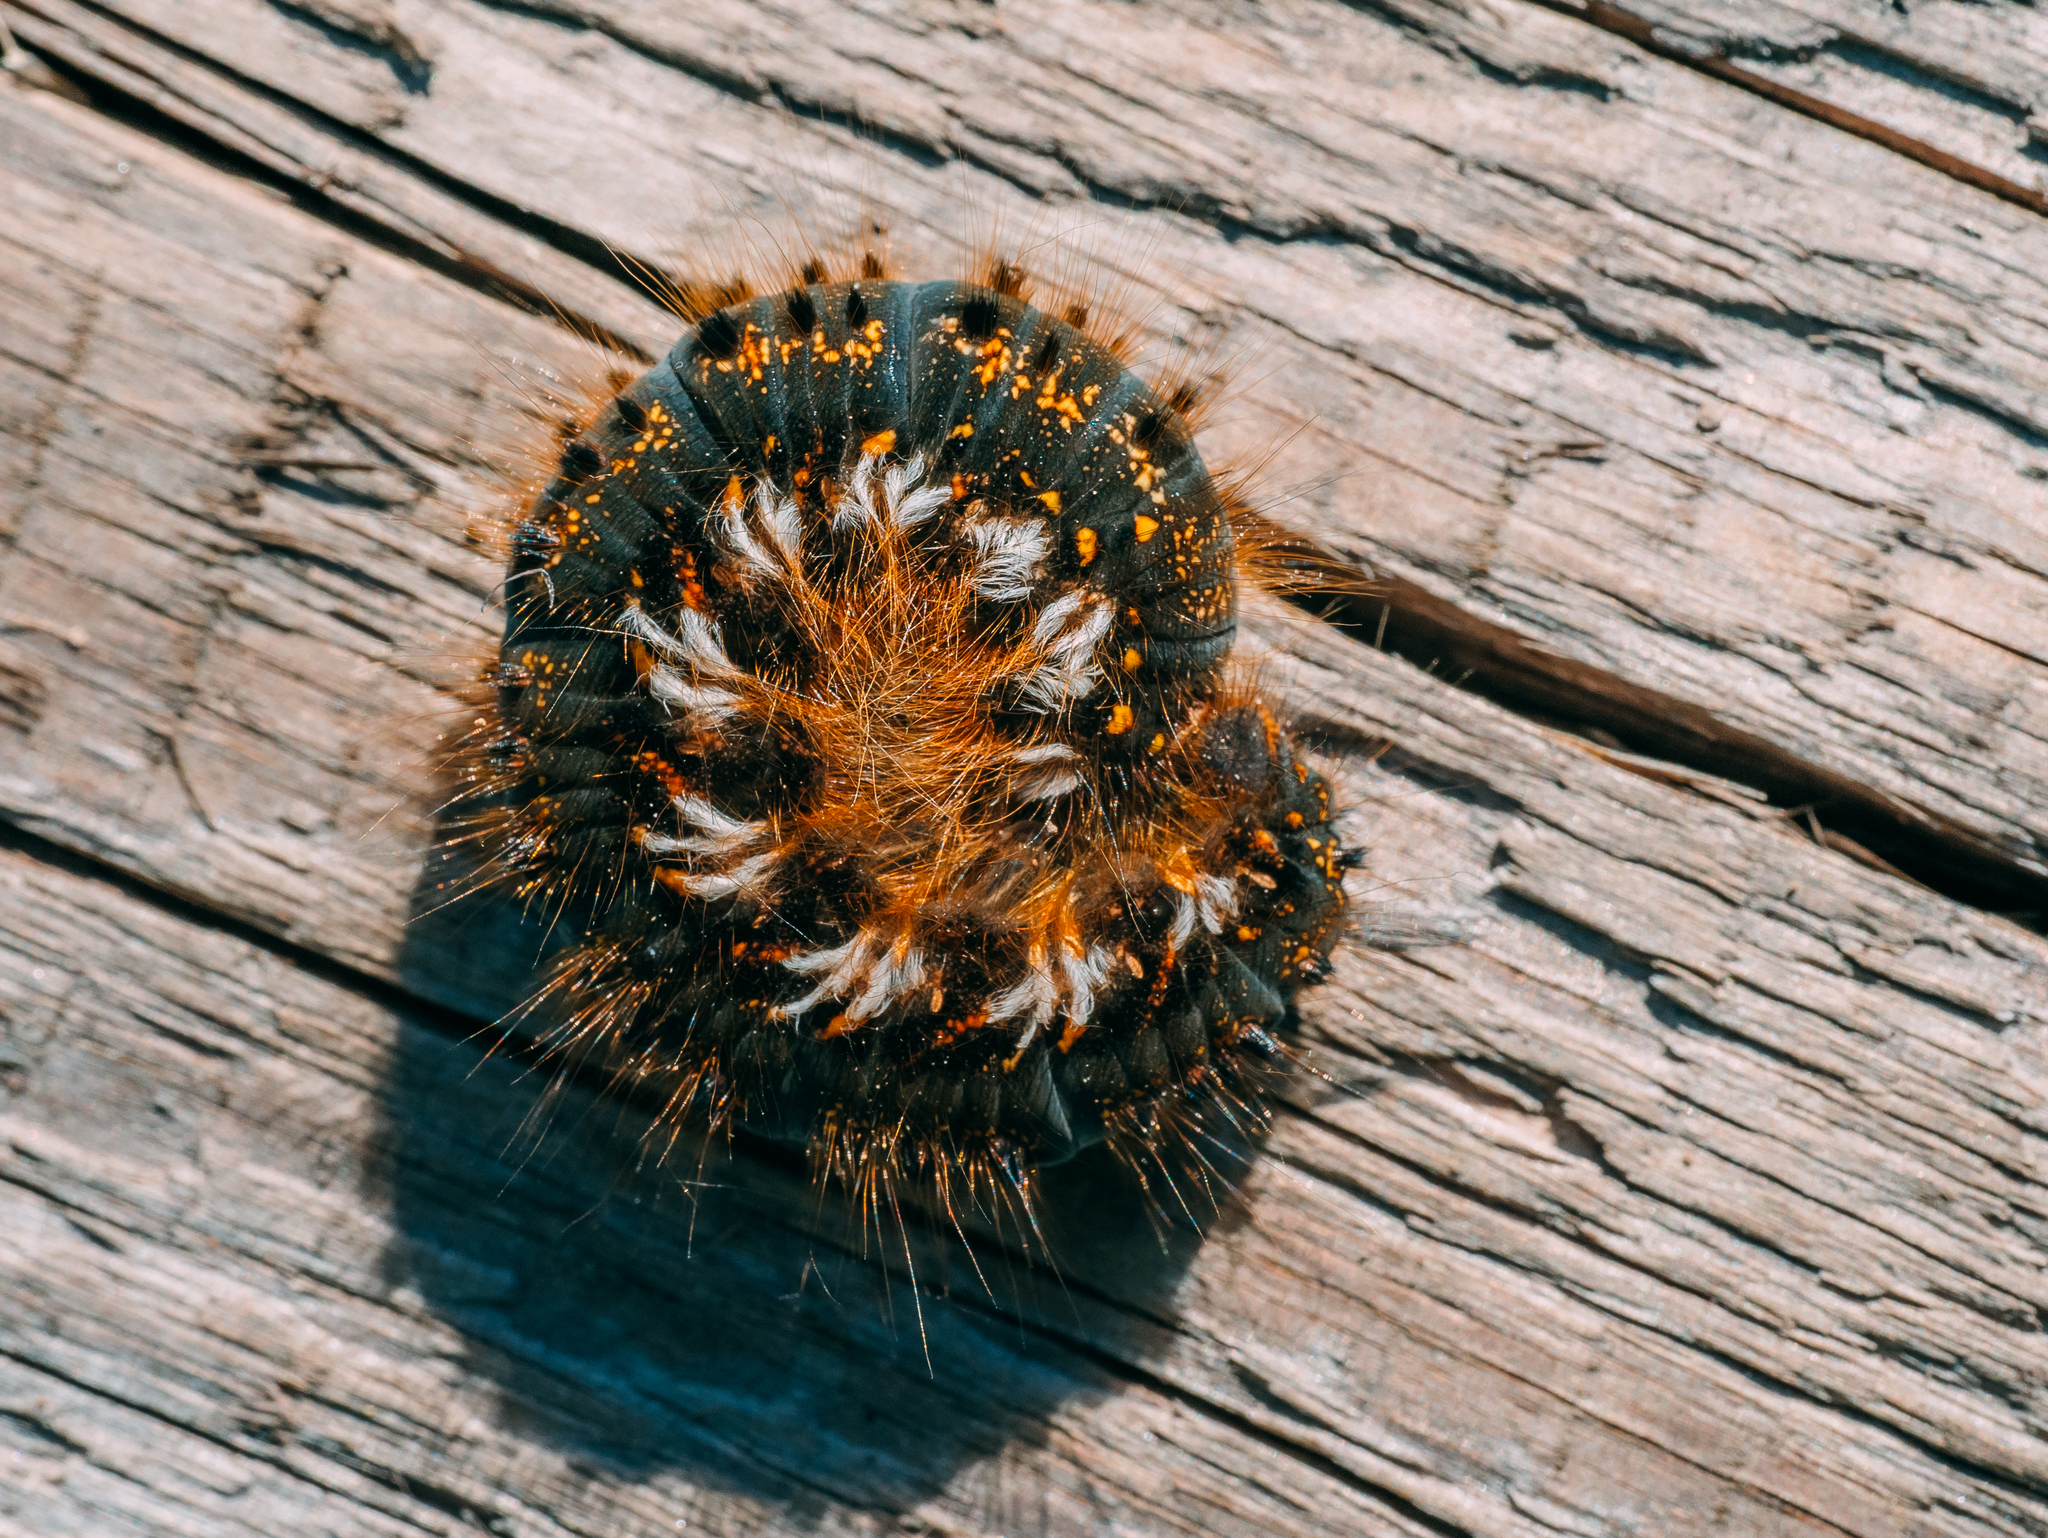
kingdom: Animalia
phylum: Arthropoda
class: Insecta
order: Lepidoptera
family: Lasiocampidae
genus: Euthrix
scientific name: Euthrix potatoria
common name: Drinker
